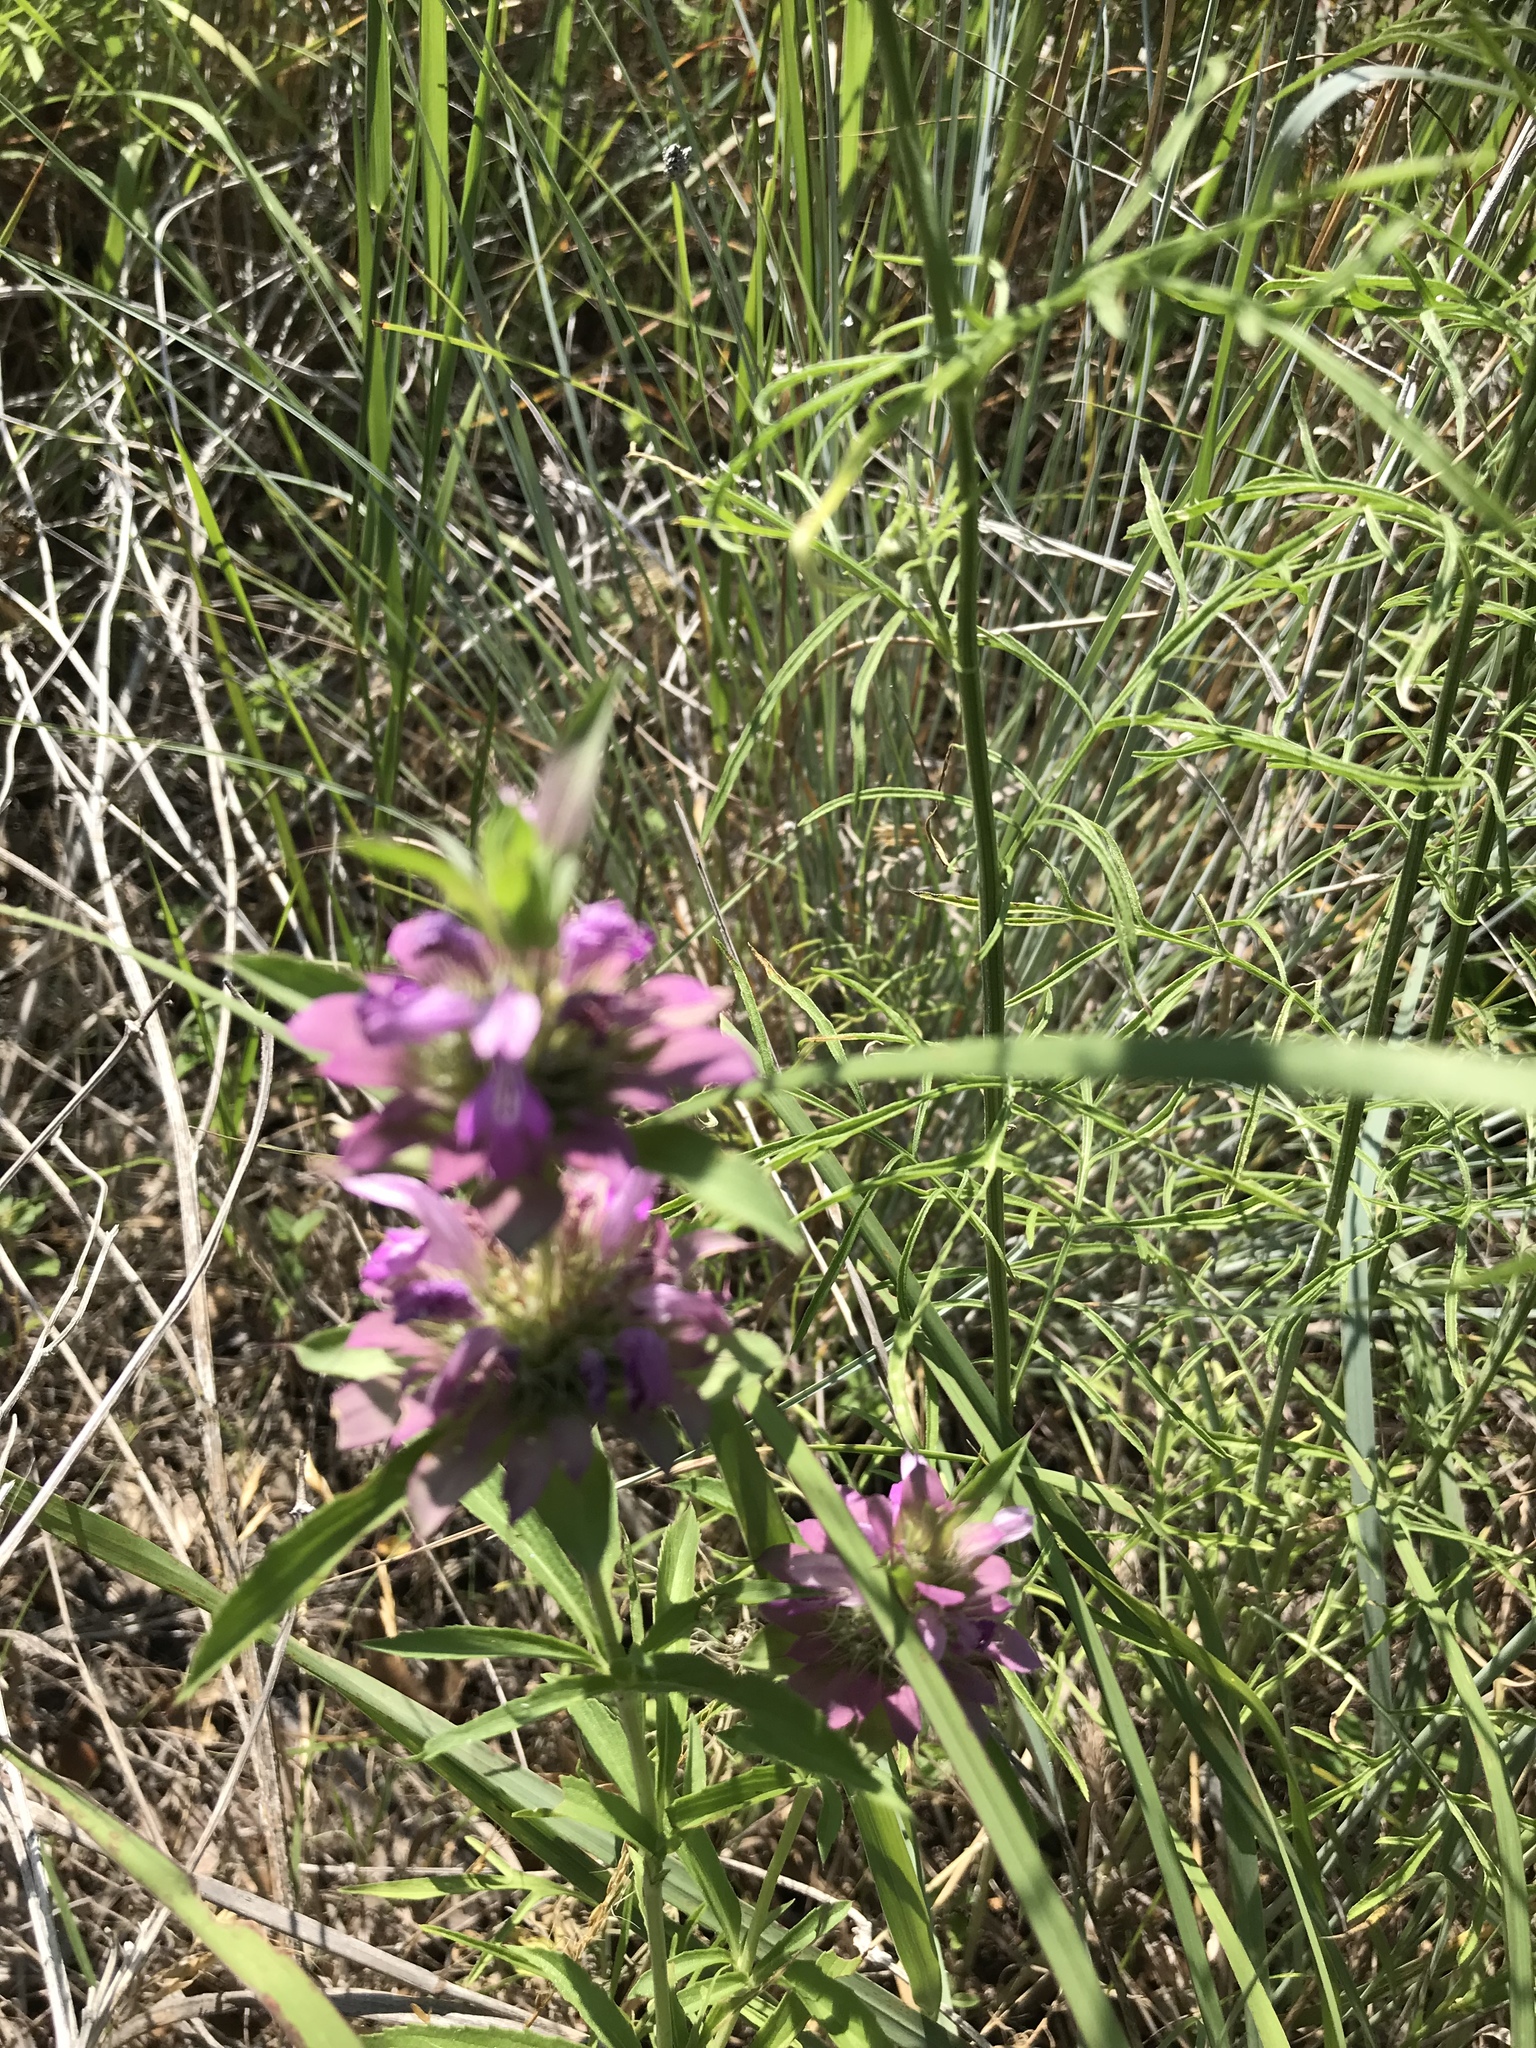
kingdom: Plantae
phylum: Tracheophyta
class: Magnoliopsida
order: Lamiales
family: Lamiaceae
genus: Monarda
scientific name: Monarda citriodora
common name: Lemon beebalm
